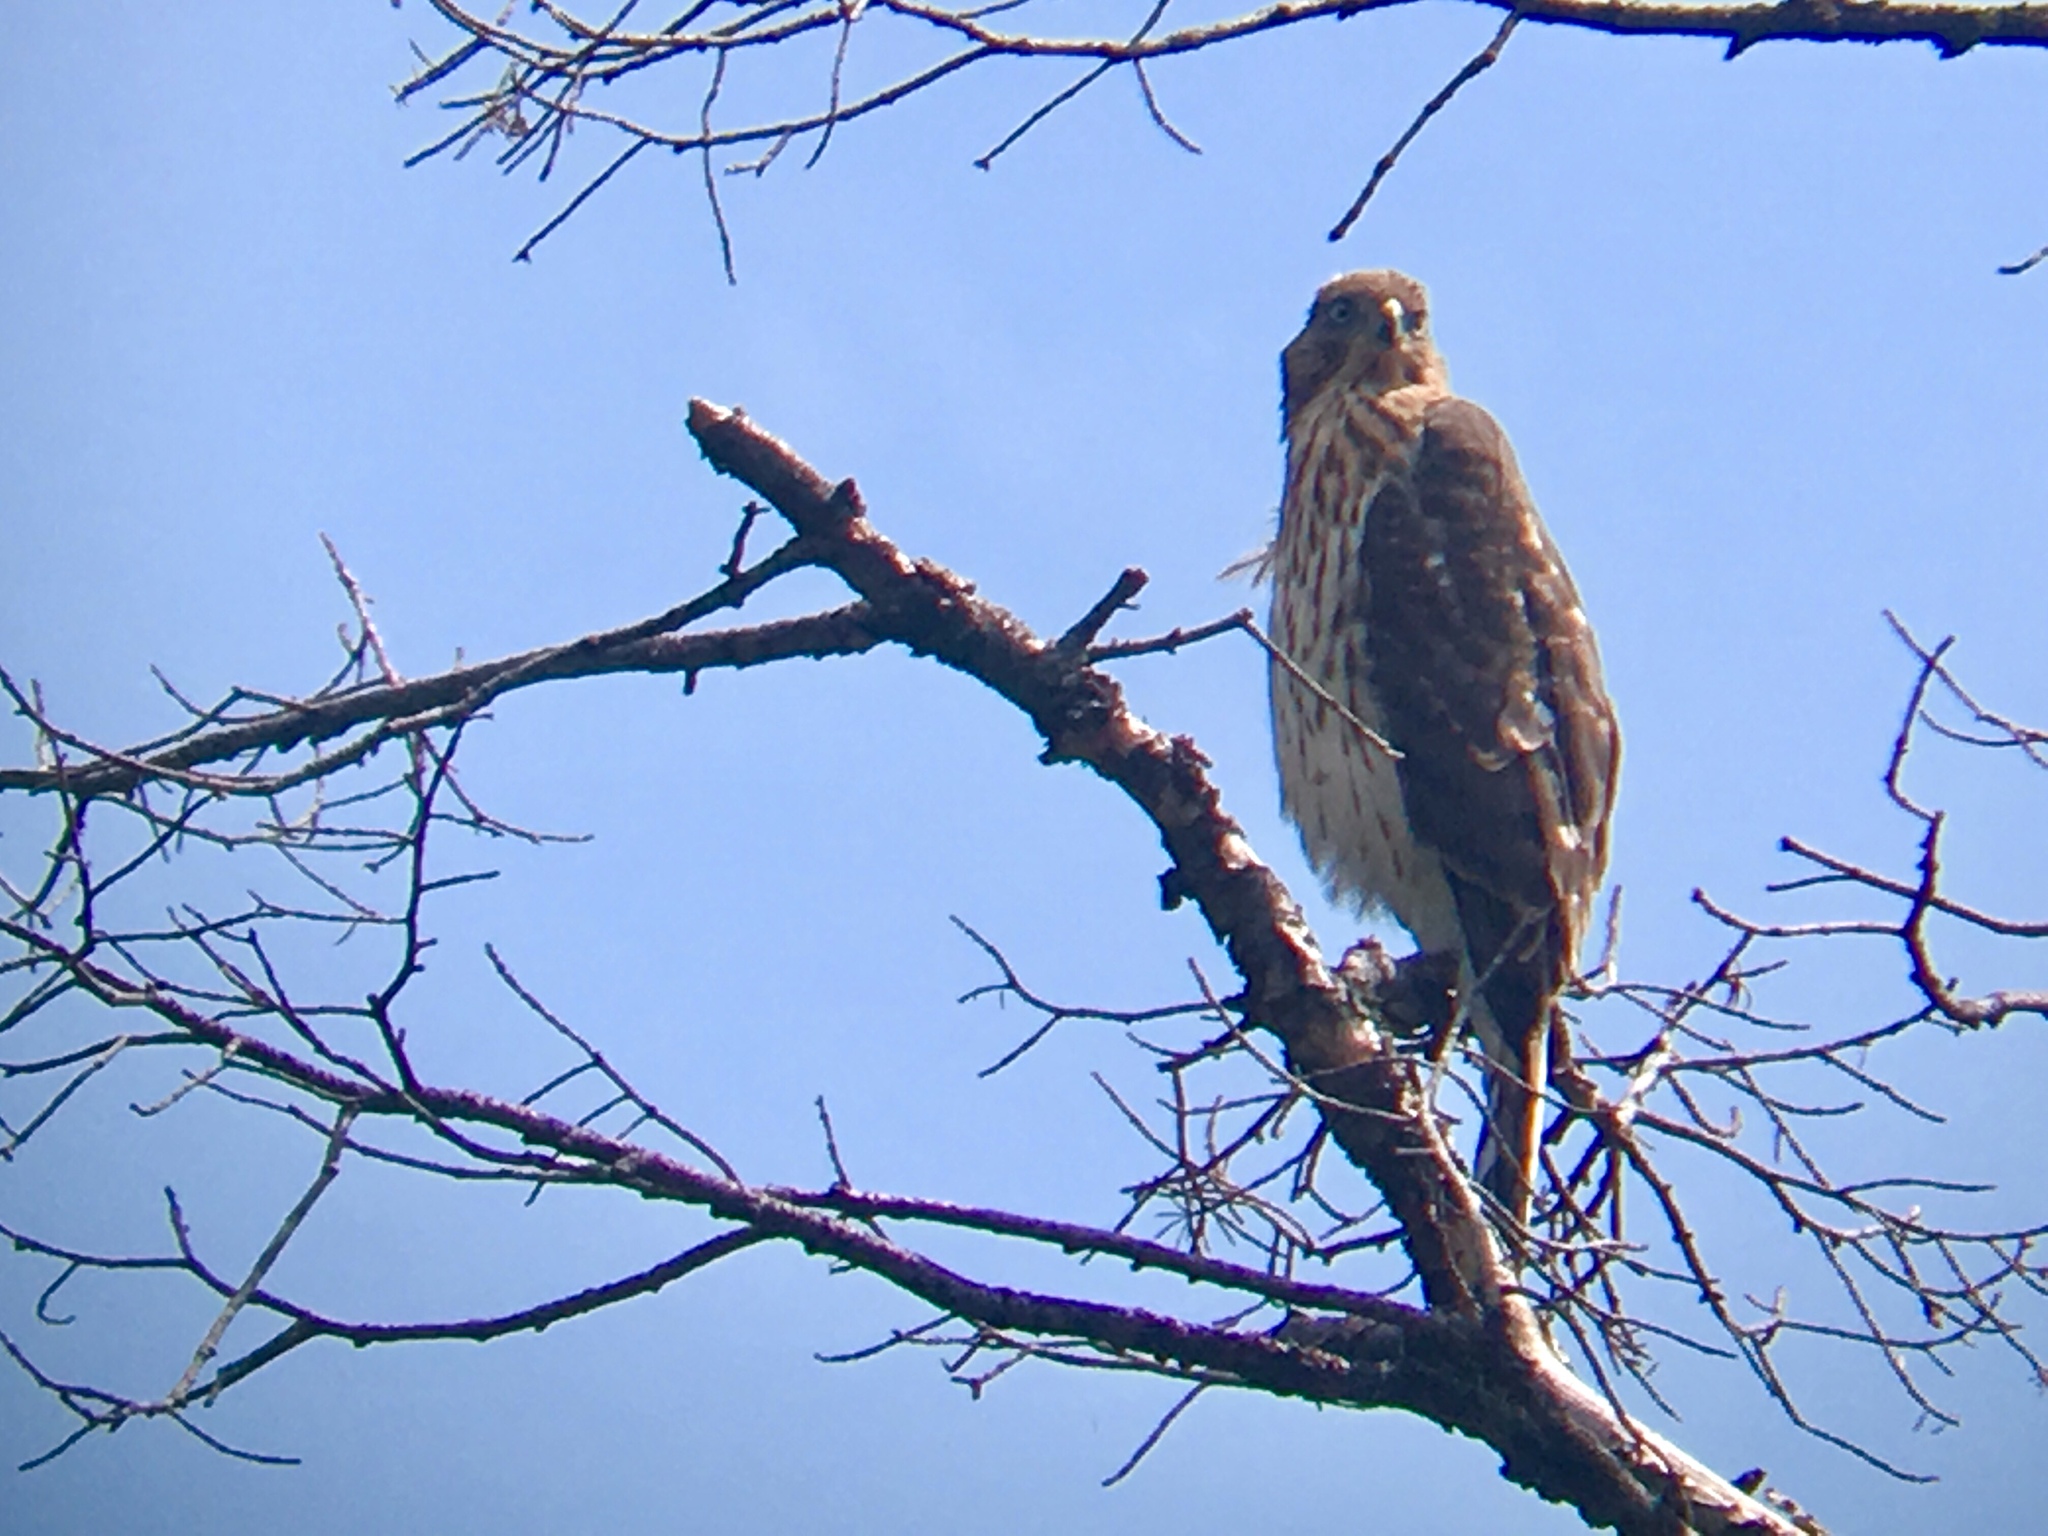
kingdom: Animalia
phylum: Chordata
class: Aves
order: Accipitriformes
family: Accipitridae
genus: Accipiter
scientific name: Accipiter cooperii
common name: Cooper's hawk
